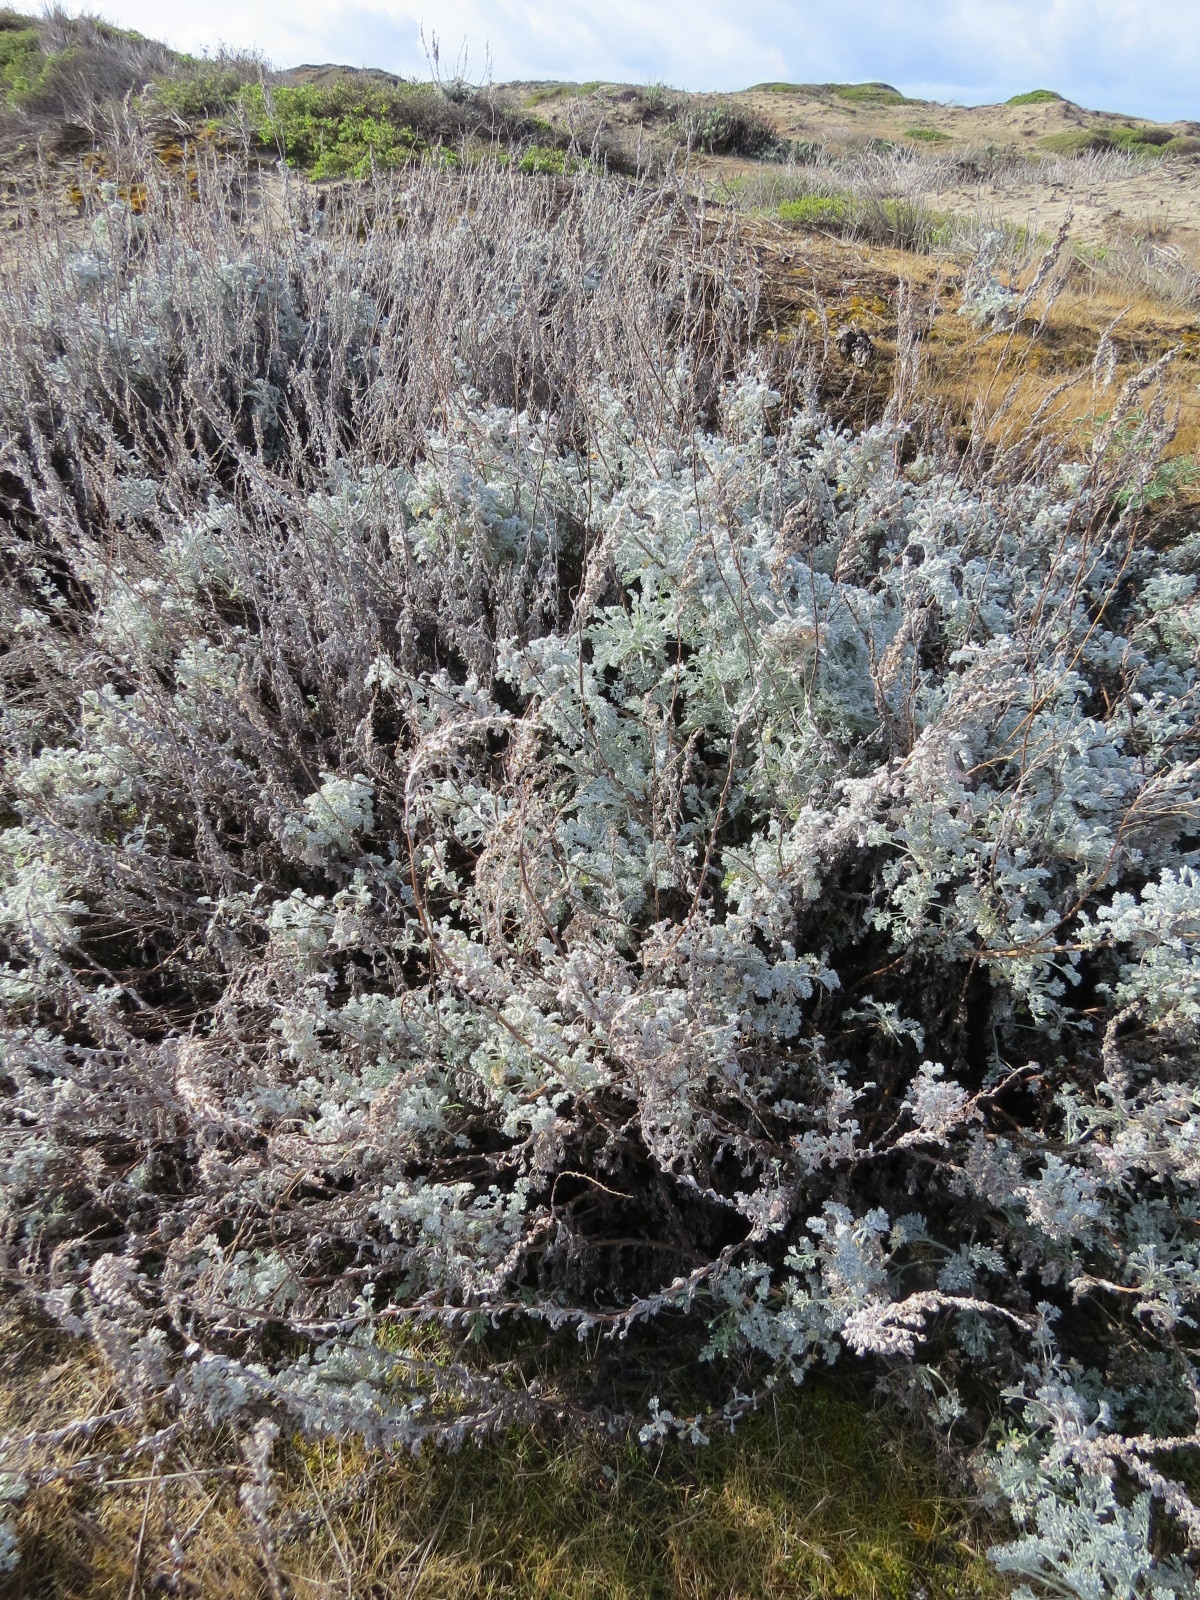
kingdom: Plantae
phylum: Tracheophyta
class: Magnoliopsida
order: Asterales
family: Asteraceae
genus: Artemisia
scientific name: Artemisia pycnocephala
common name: Coastal sagewort
